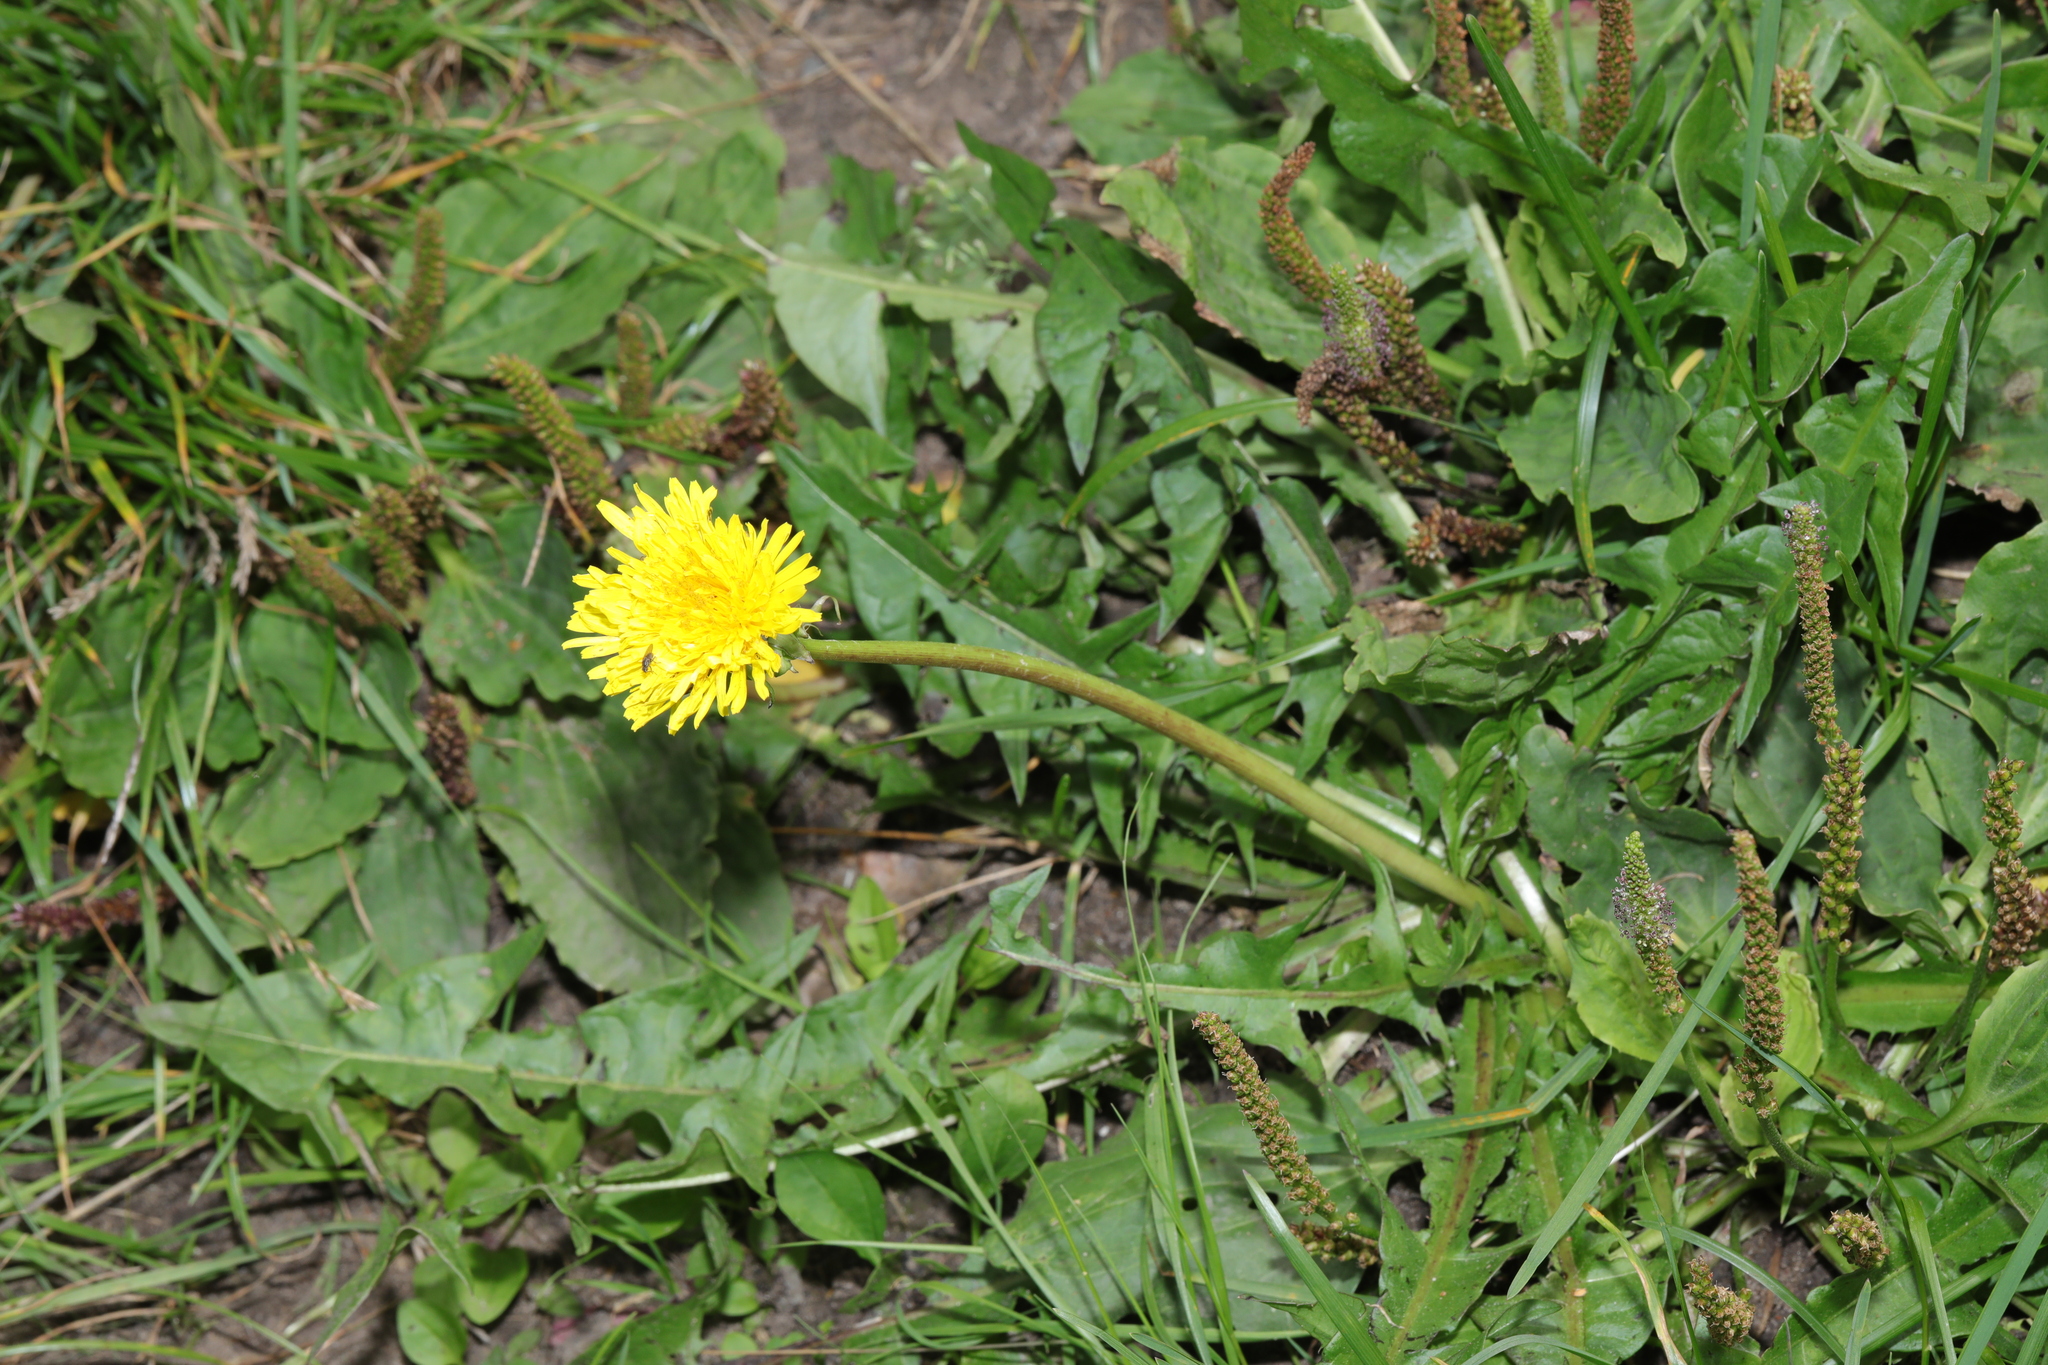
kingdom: Plantae
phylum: Tracheophyta
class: Magnoliopsida
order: Asterales
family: Asteraceae
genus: Taraxacum
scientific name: Taraxacum officinale
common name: Common dandelion
